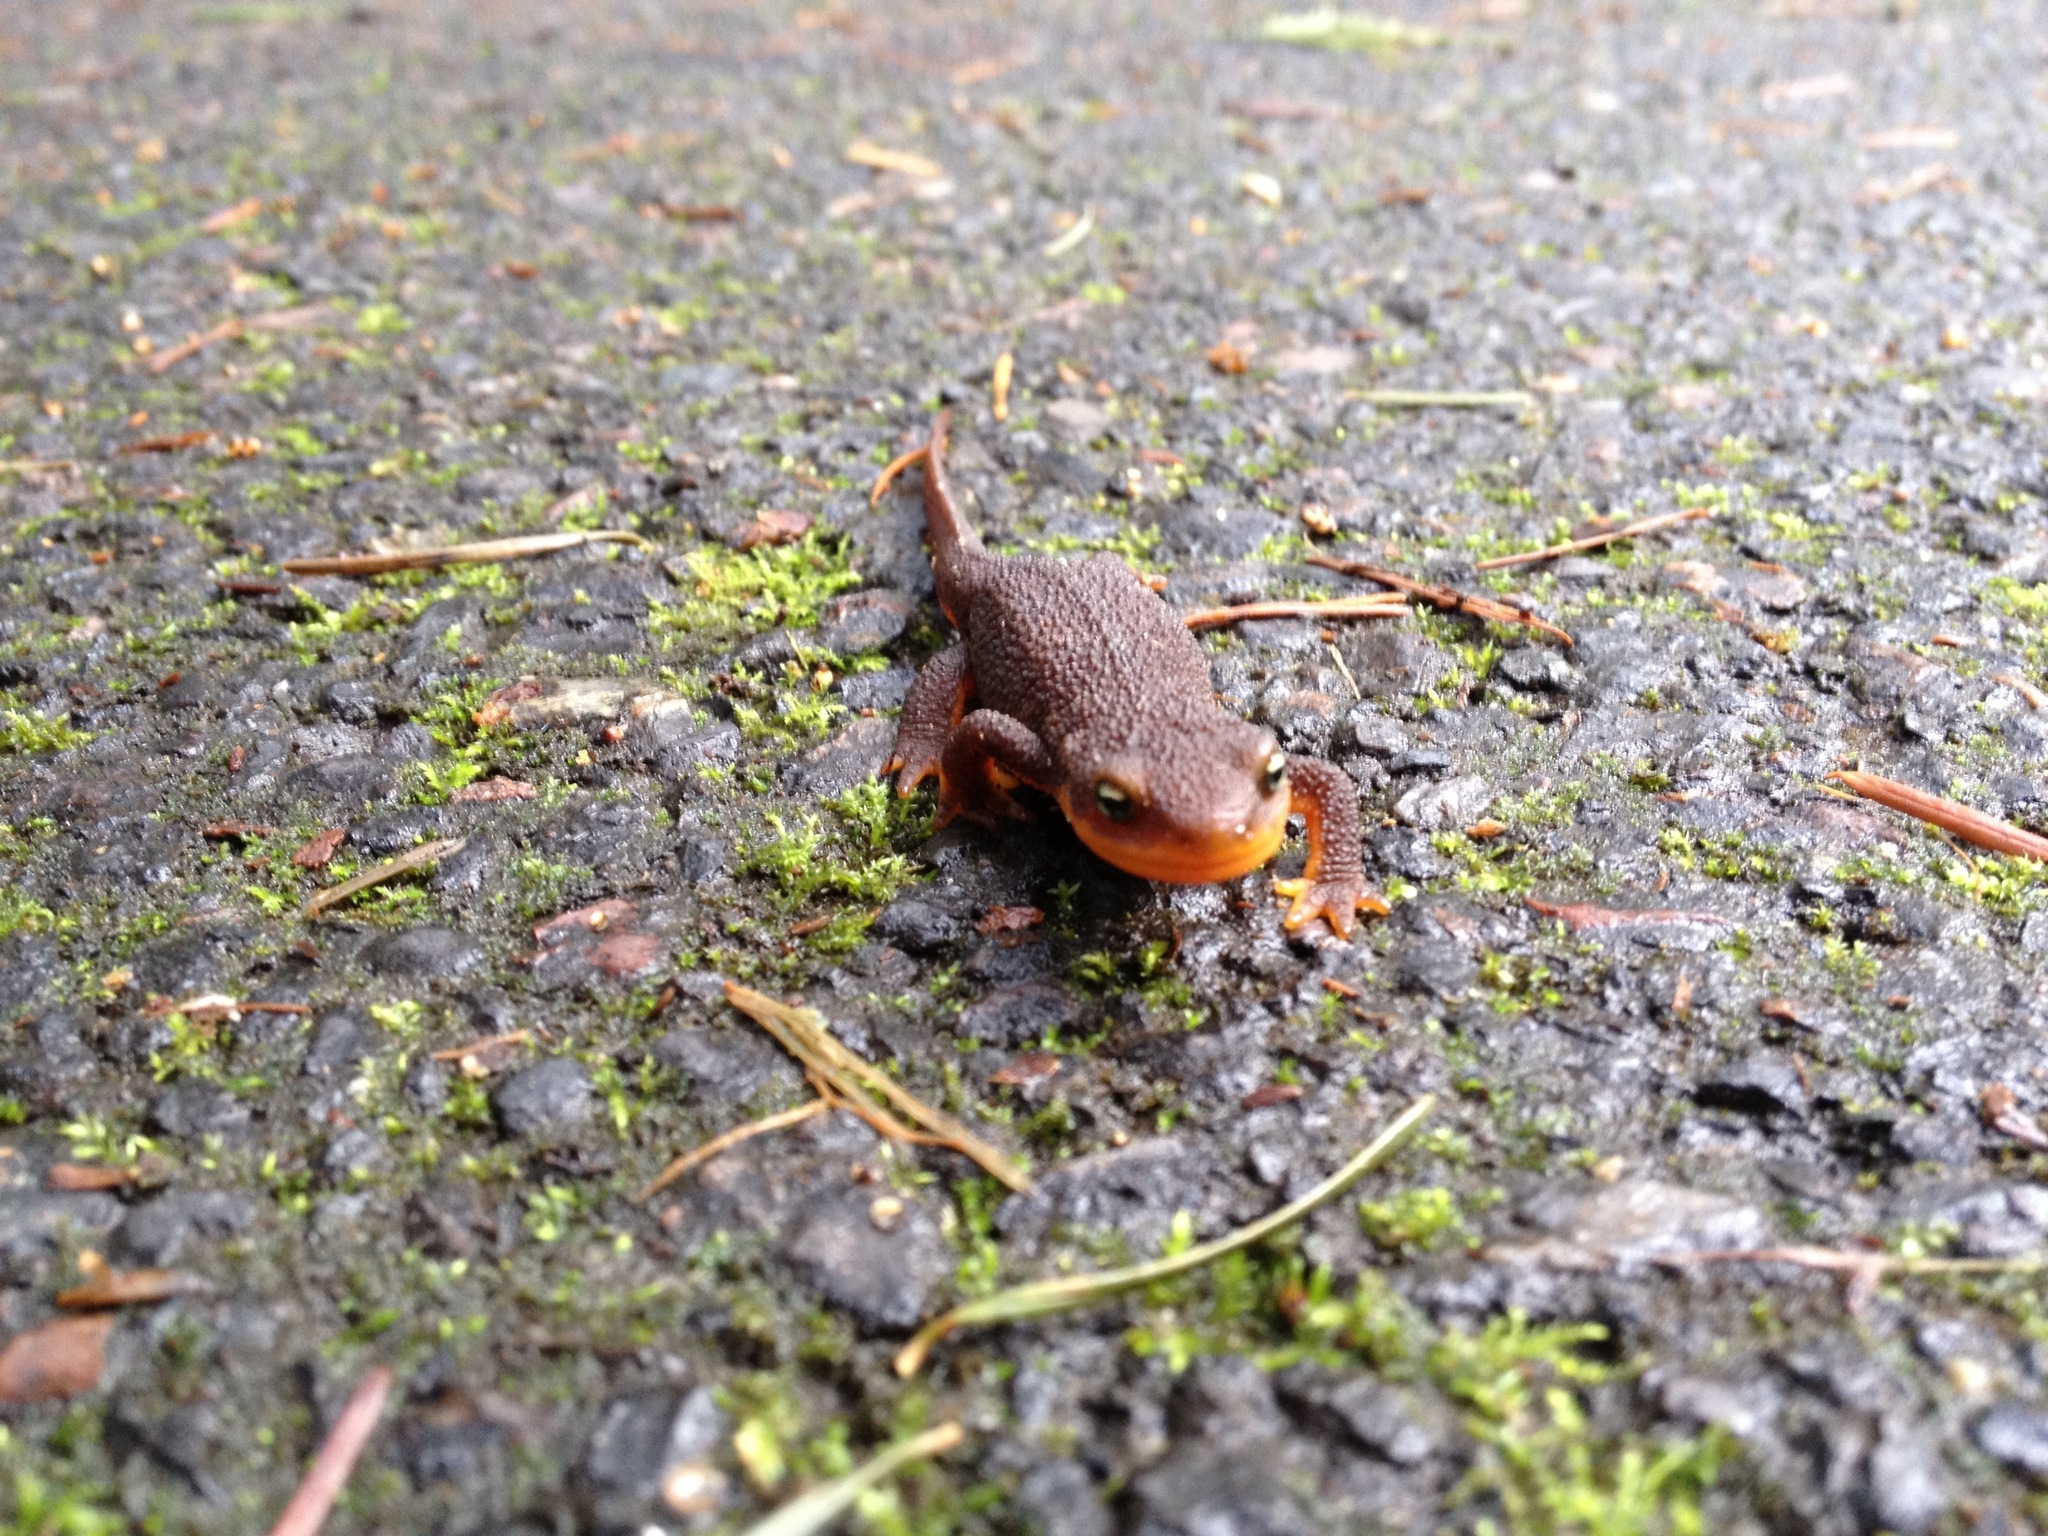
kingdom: Animalia
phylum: Chordata
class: Amphibia
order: Caudata
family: Salamandridae
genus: Taricha
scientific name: Taricha granulosa
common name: Roughskin newt
